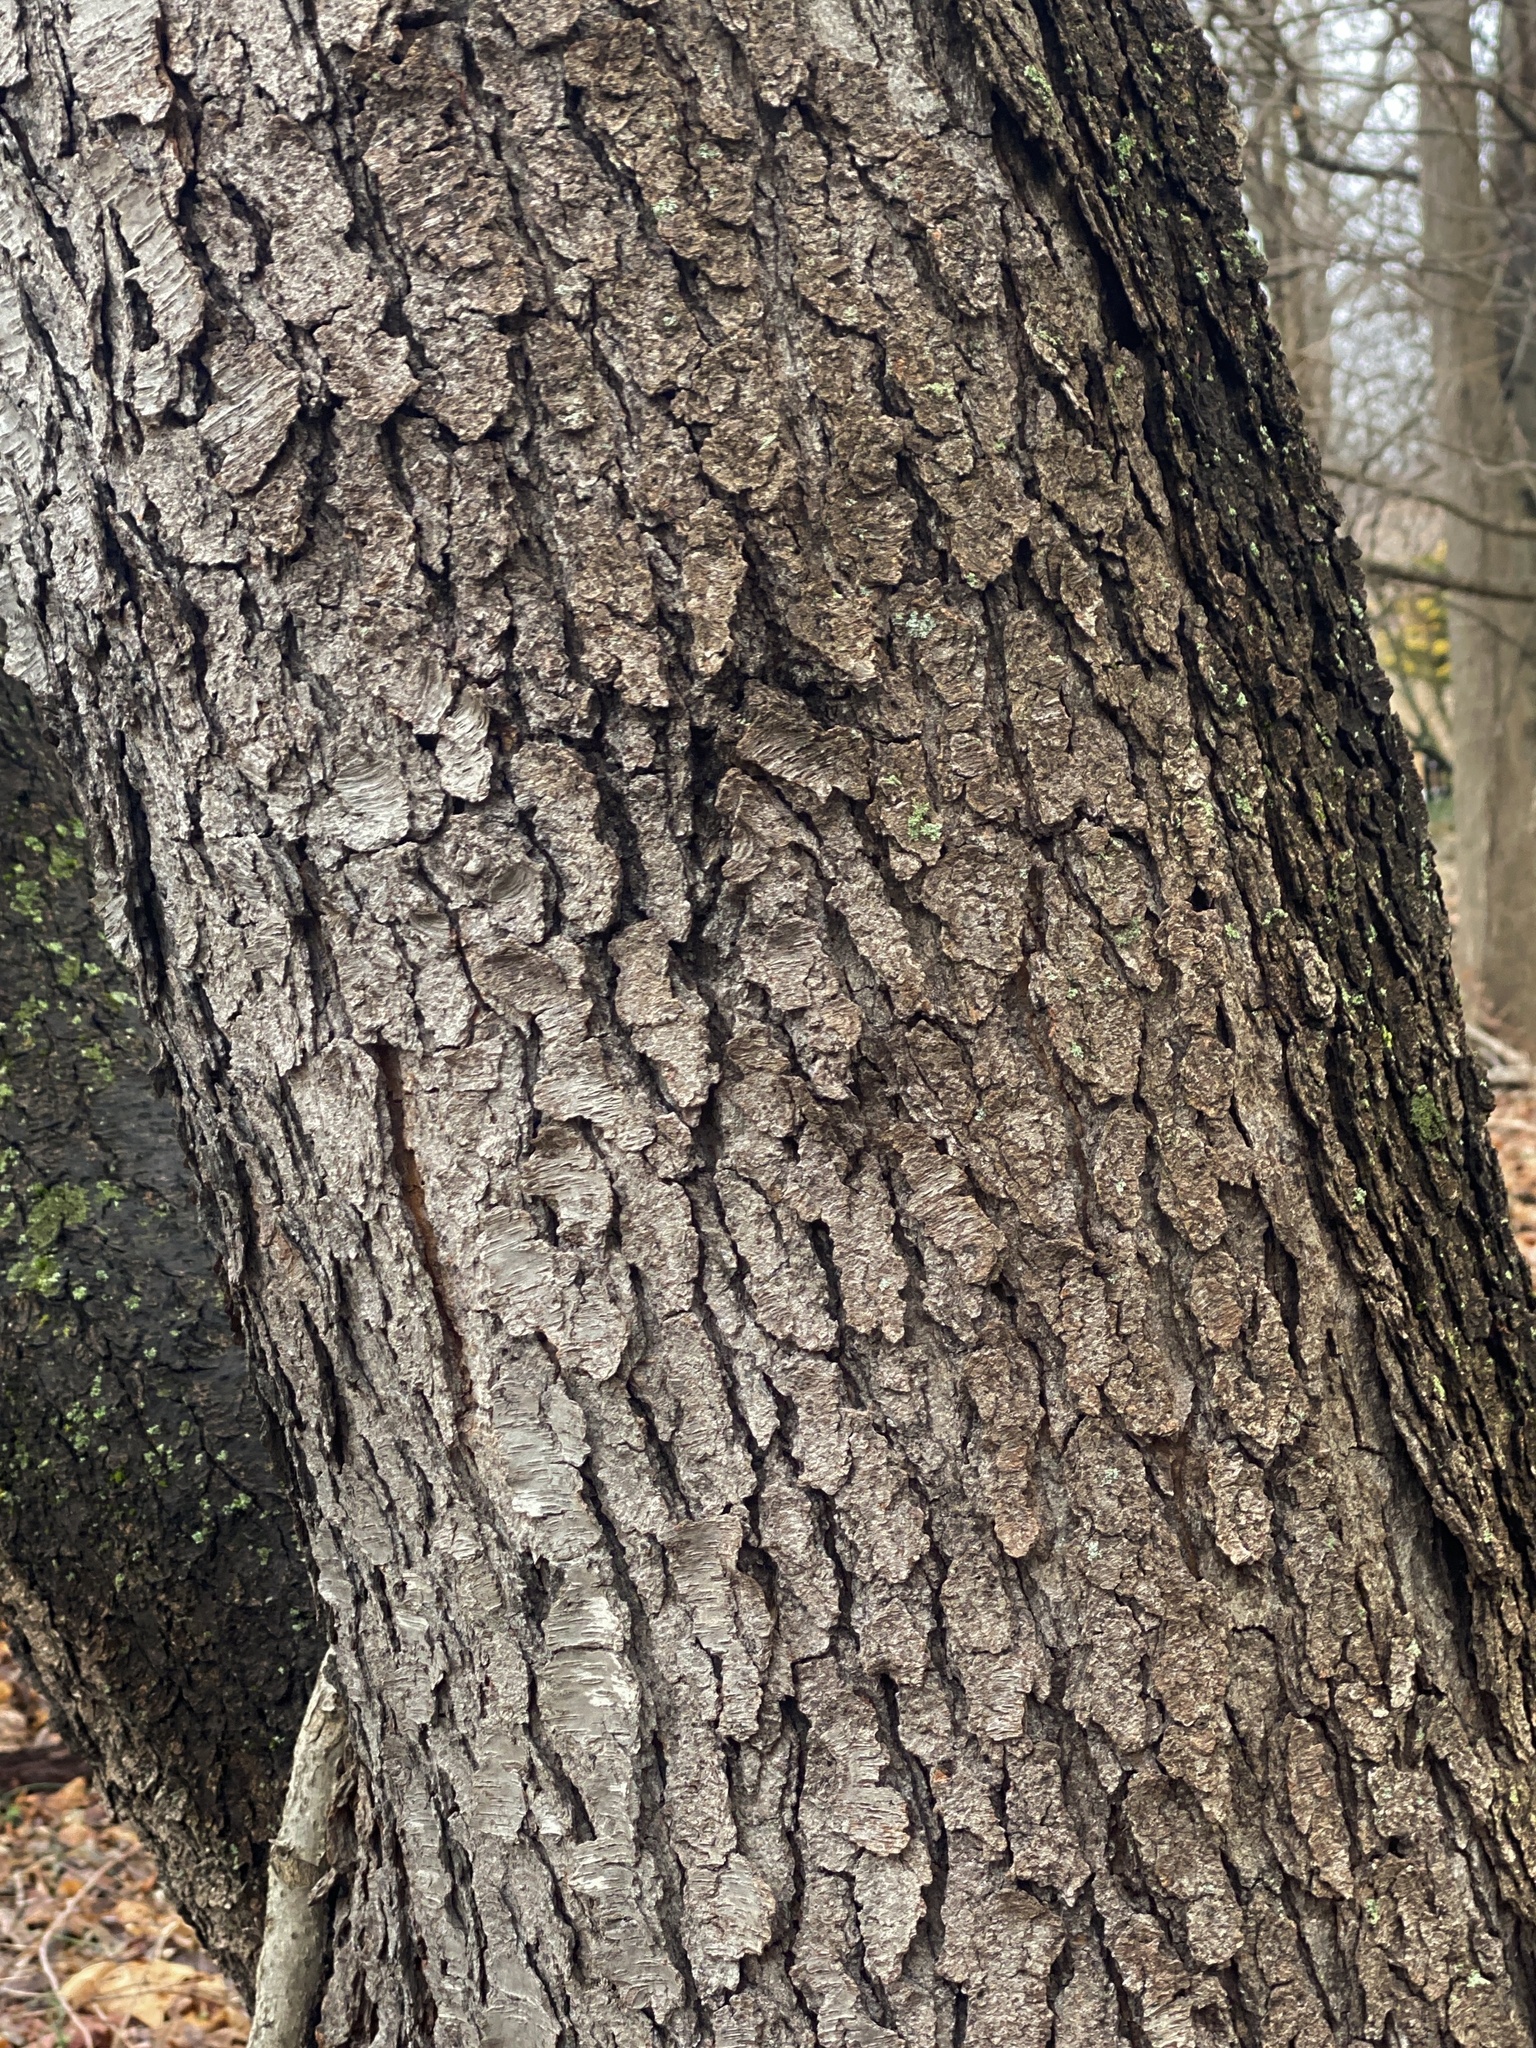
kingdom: Plantae
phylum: Tracheophyta
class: Magnoliopsida
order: Rosales
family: Rosaceae
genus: Prunus
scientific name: Prunus serotina
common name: Black cherry
